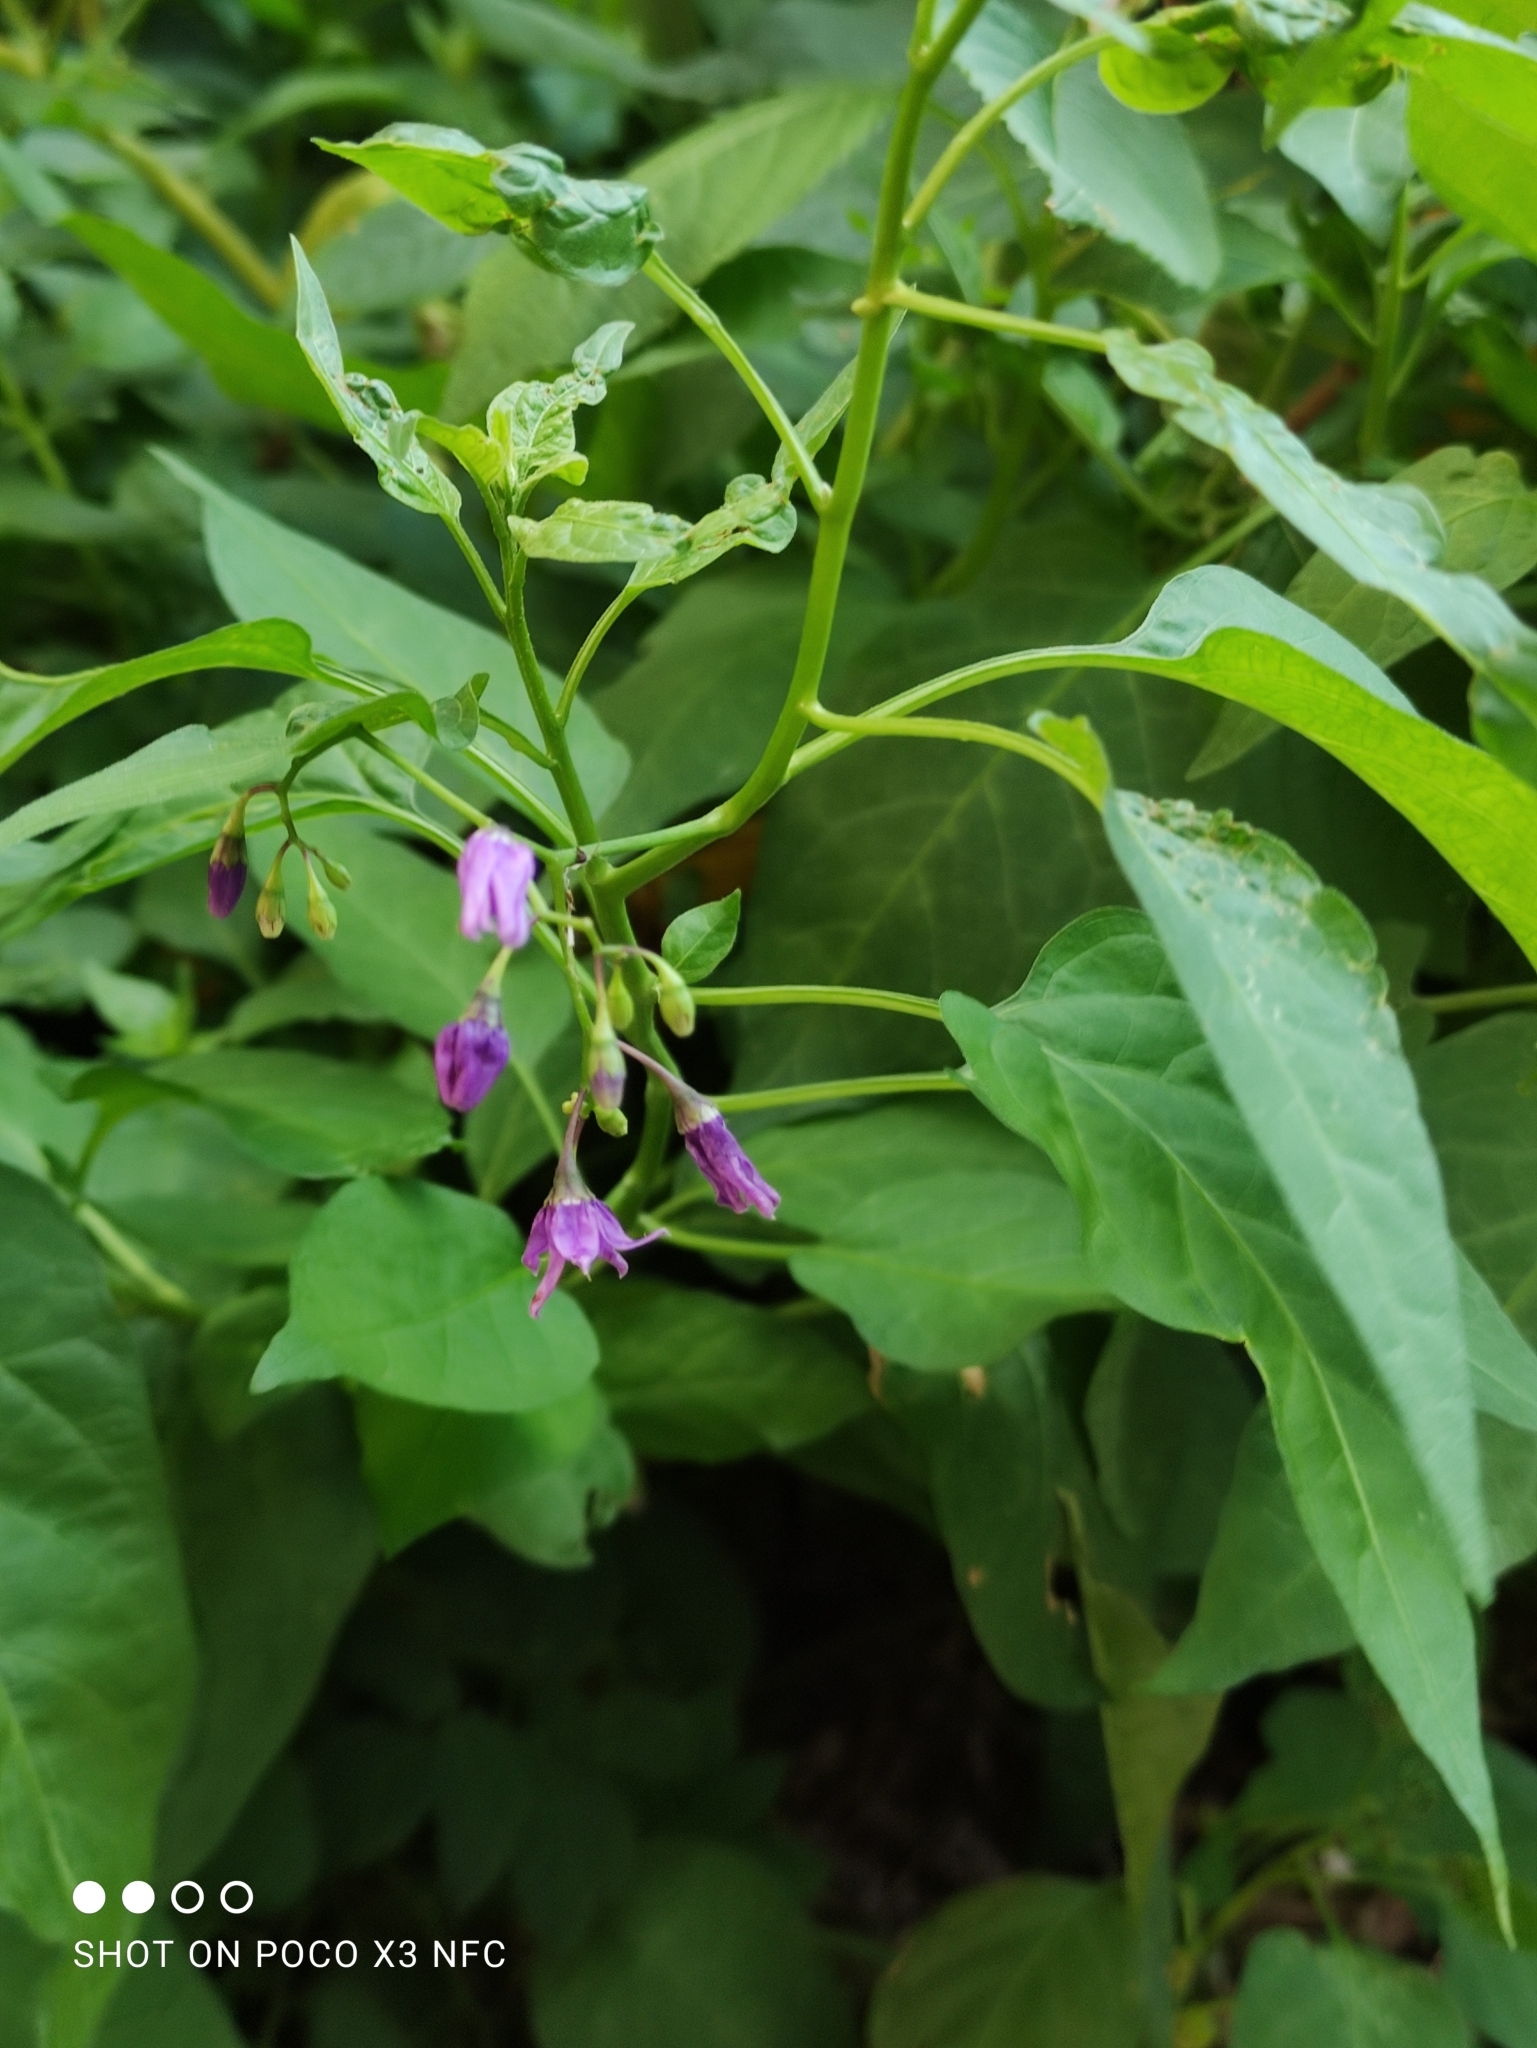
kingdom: Plantae
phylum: Tracheophyta
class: Magnoliopsida
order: Solanales
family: Solanaceae
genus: Solanum
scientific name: Solanum dulcamara
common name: Climbing nightshade
